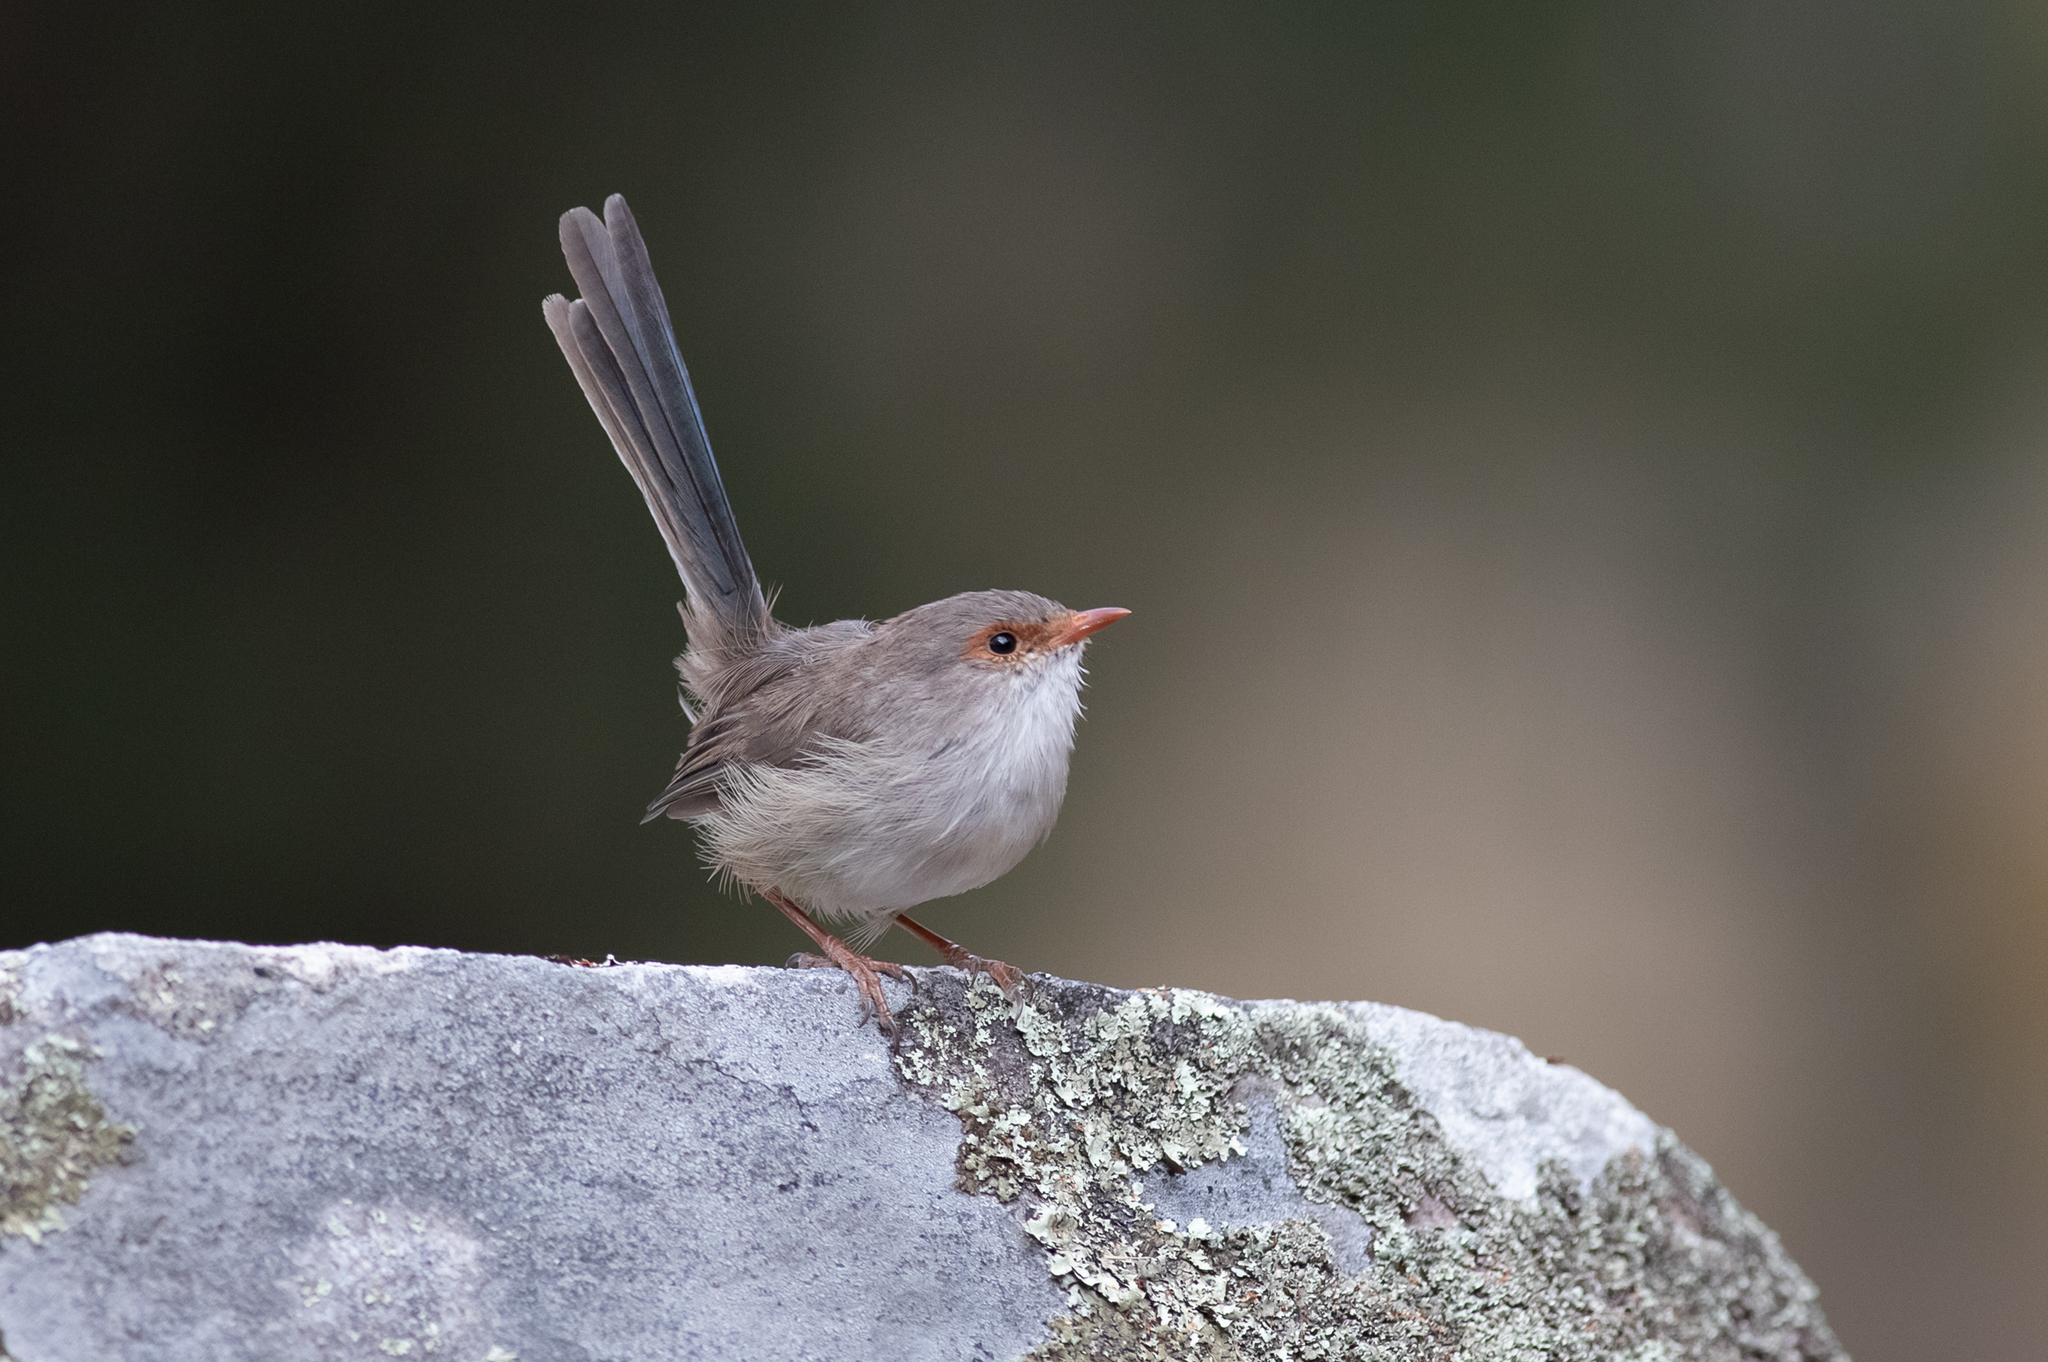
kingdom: Animalia
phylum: Chordata
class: Aves
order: Passeriformes
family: Maluridae
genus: Malurus
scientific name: Malurus cyaneus
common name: Superb fairywren
